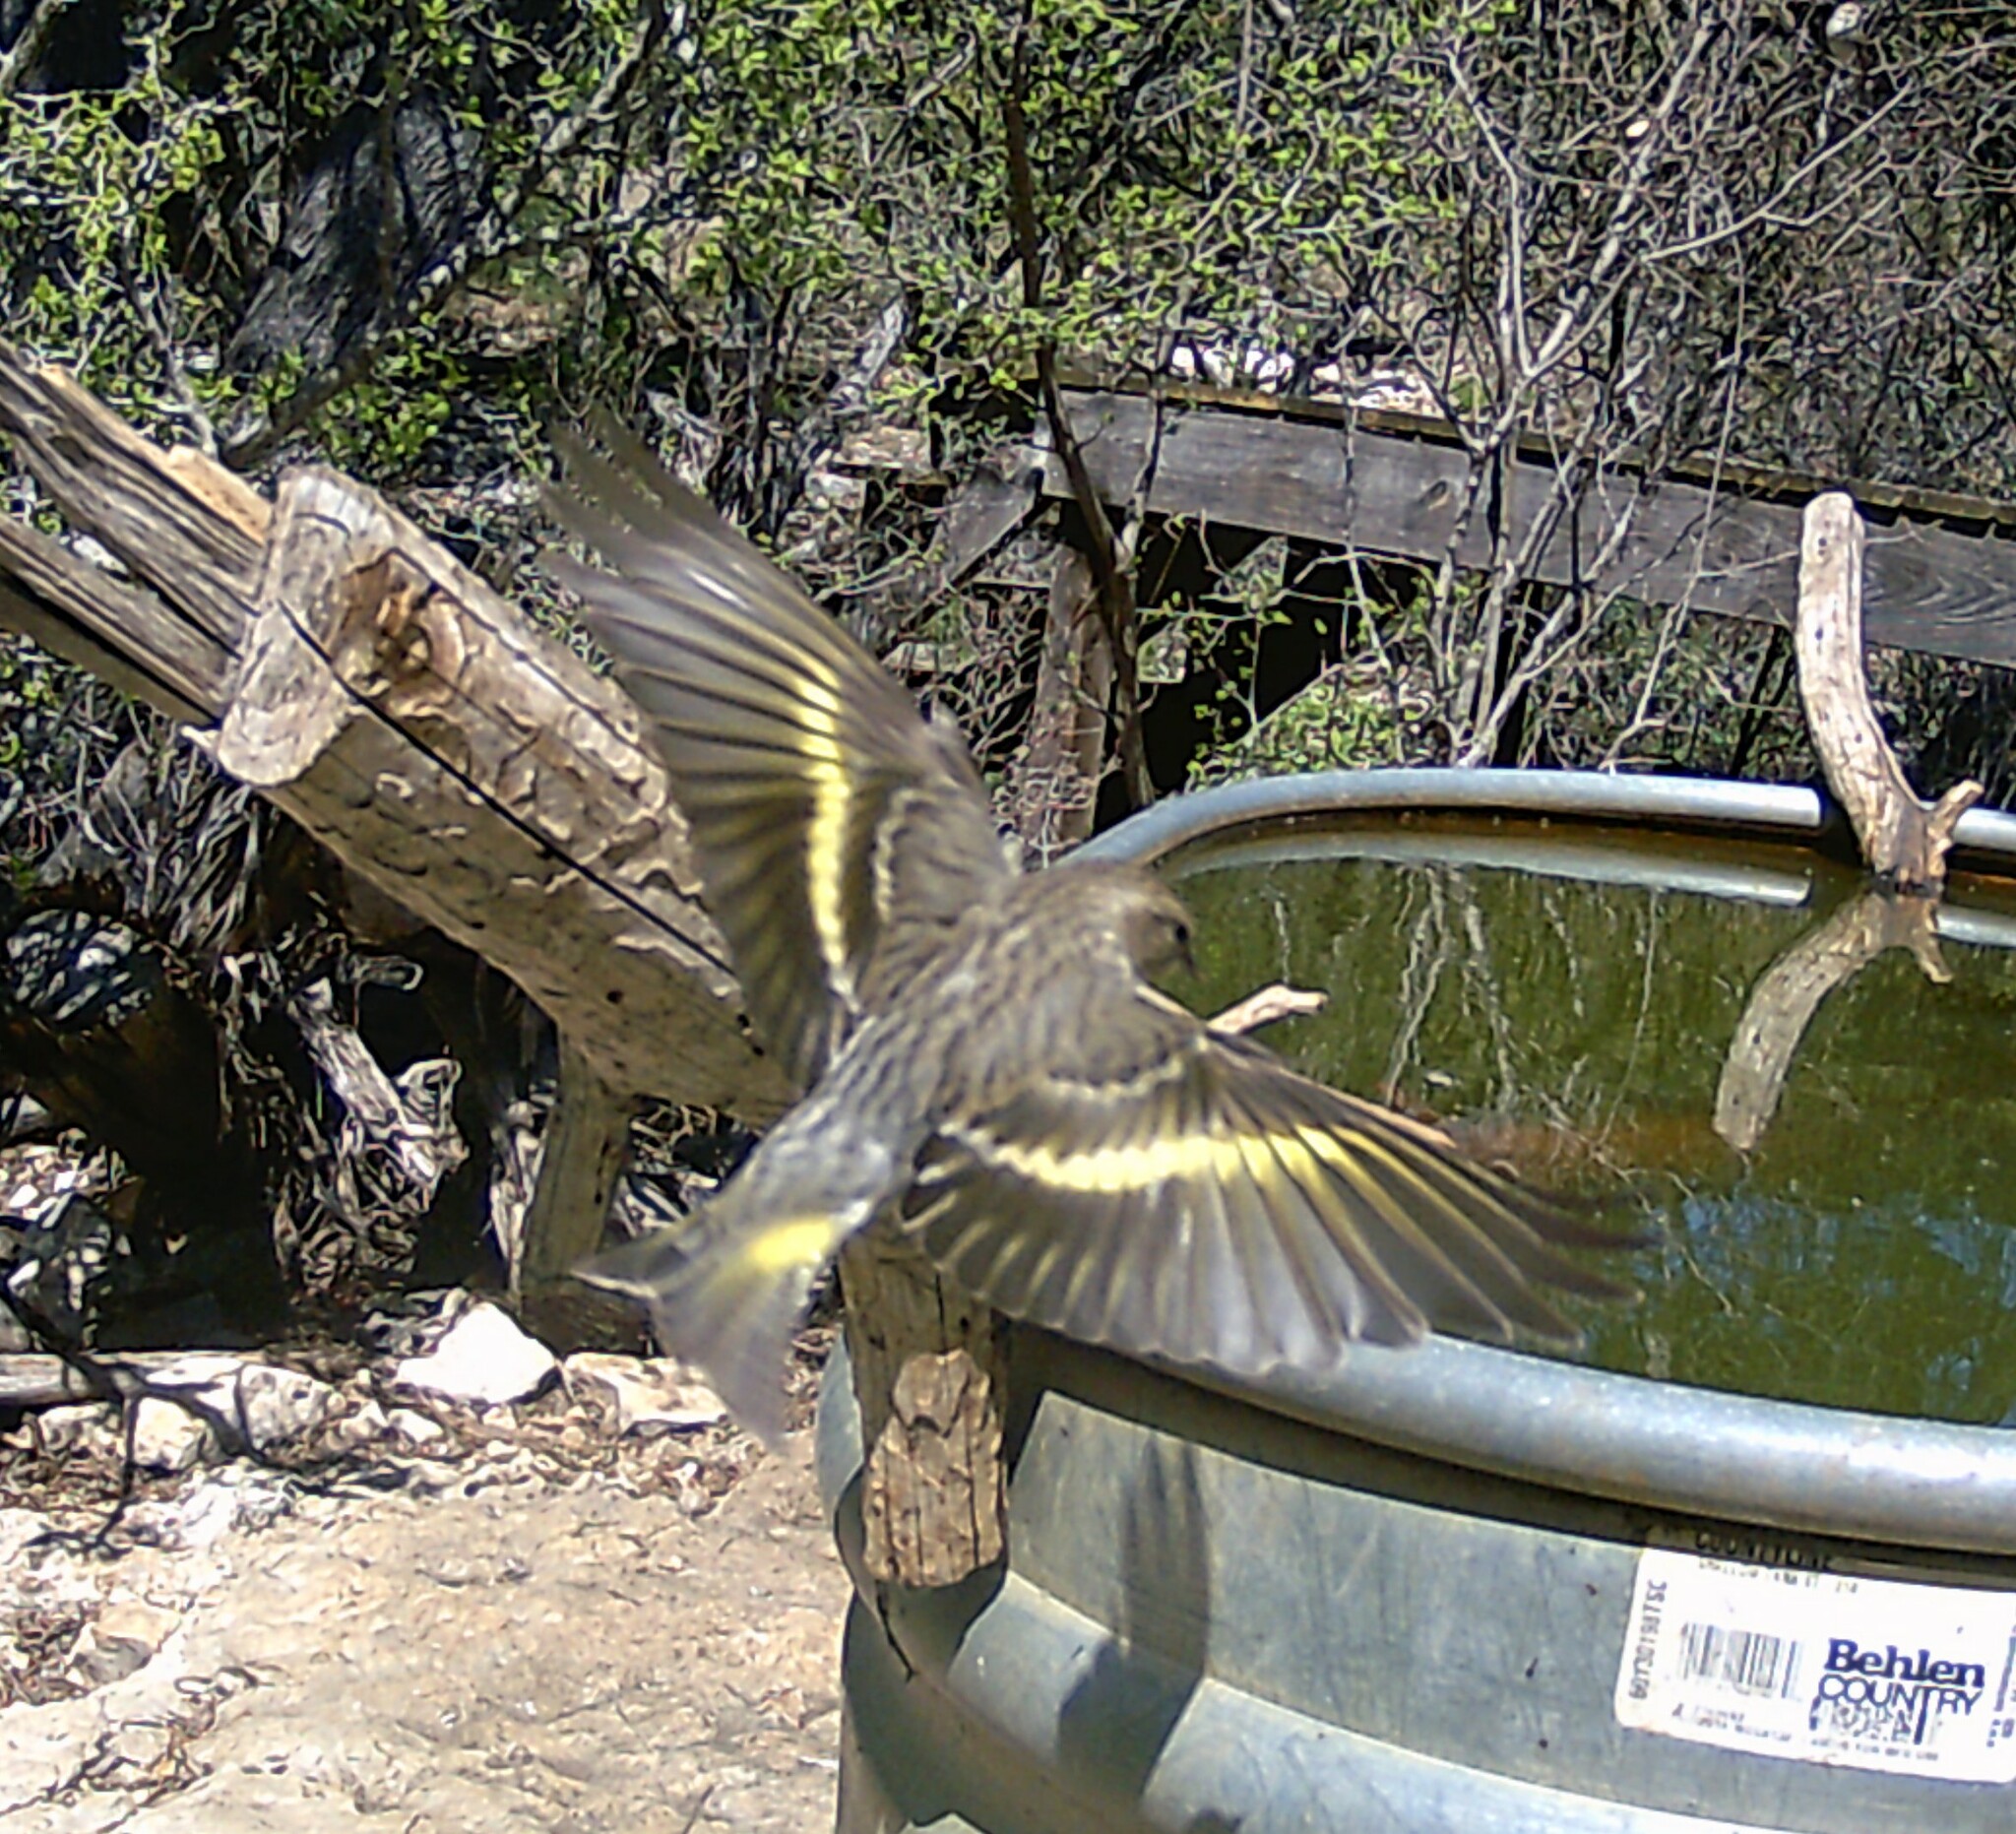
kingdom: Animalia
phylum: Chordata
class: Aves
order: Passeriformes
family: Fringillidae
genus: Spinus
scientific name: Spinus pinus
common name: Pine siskin
